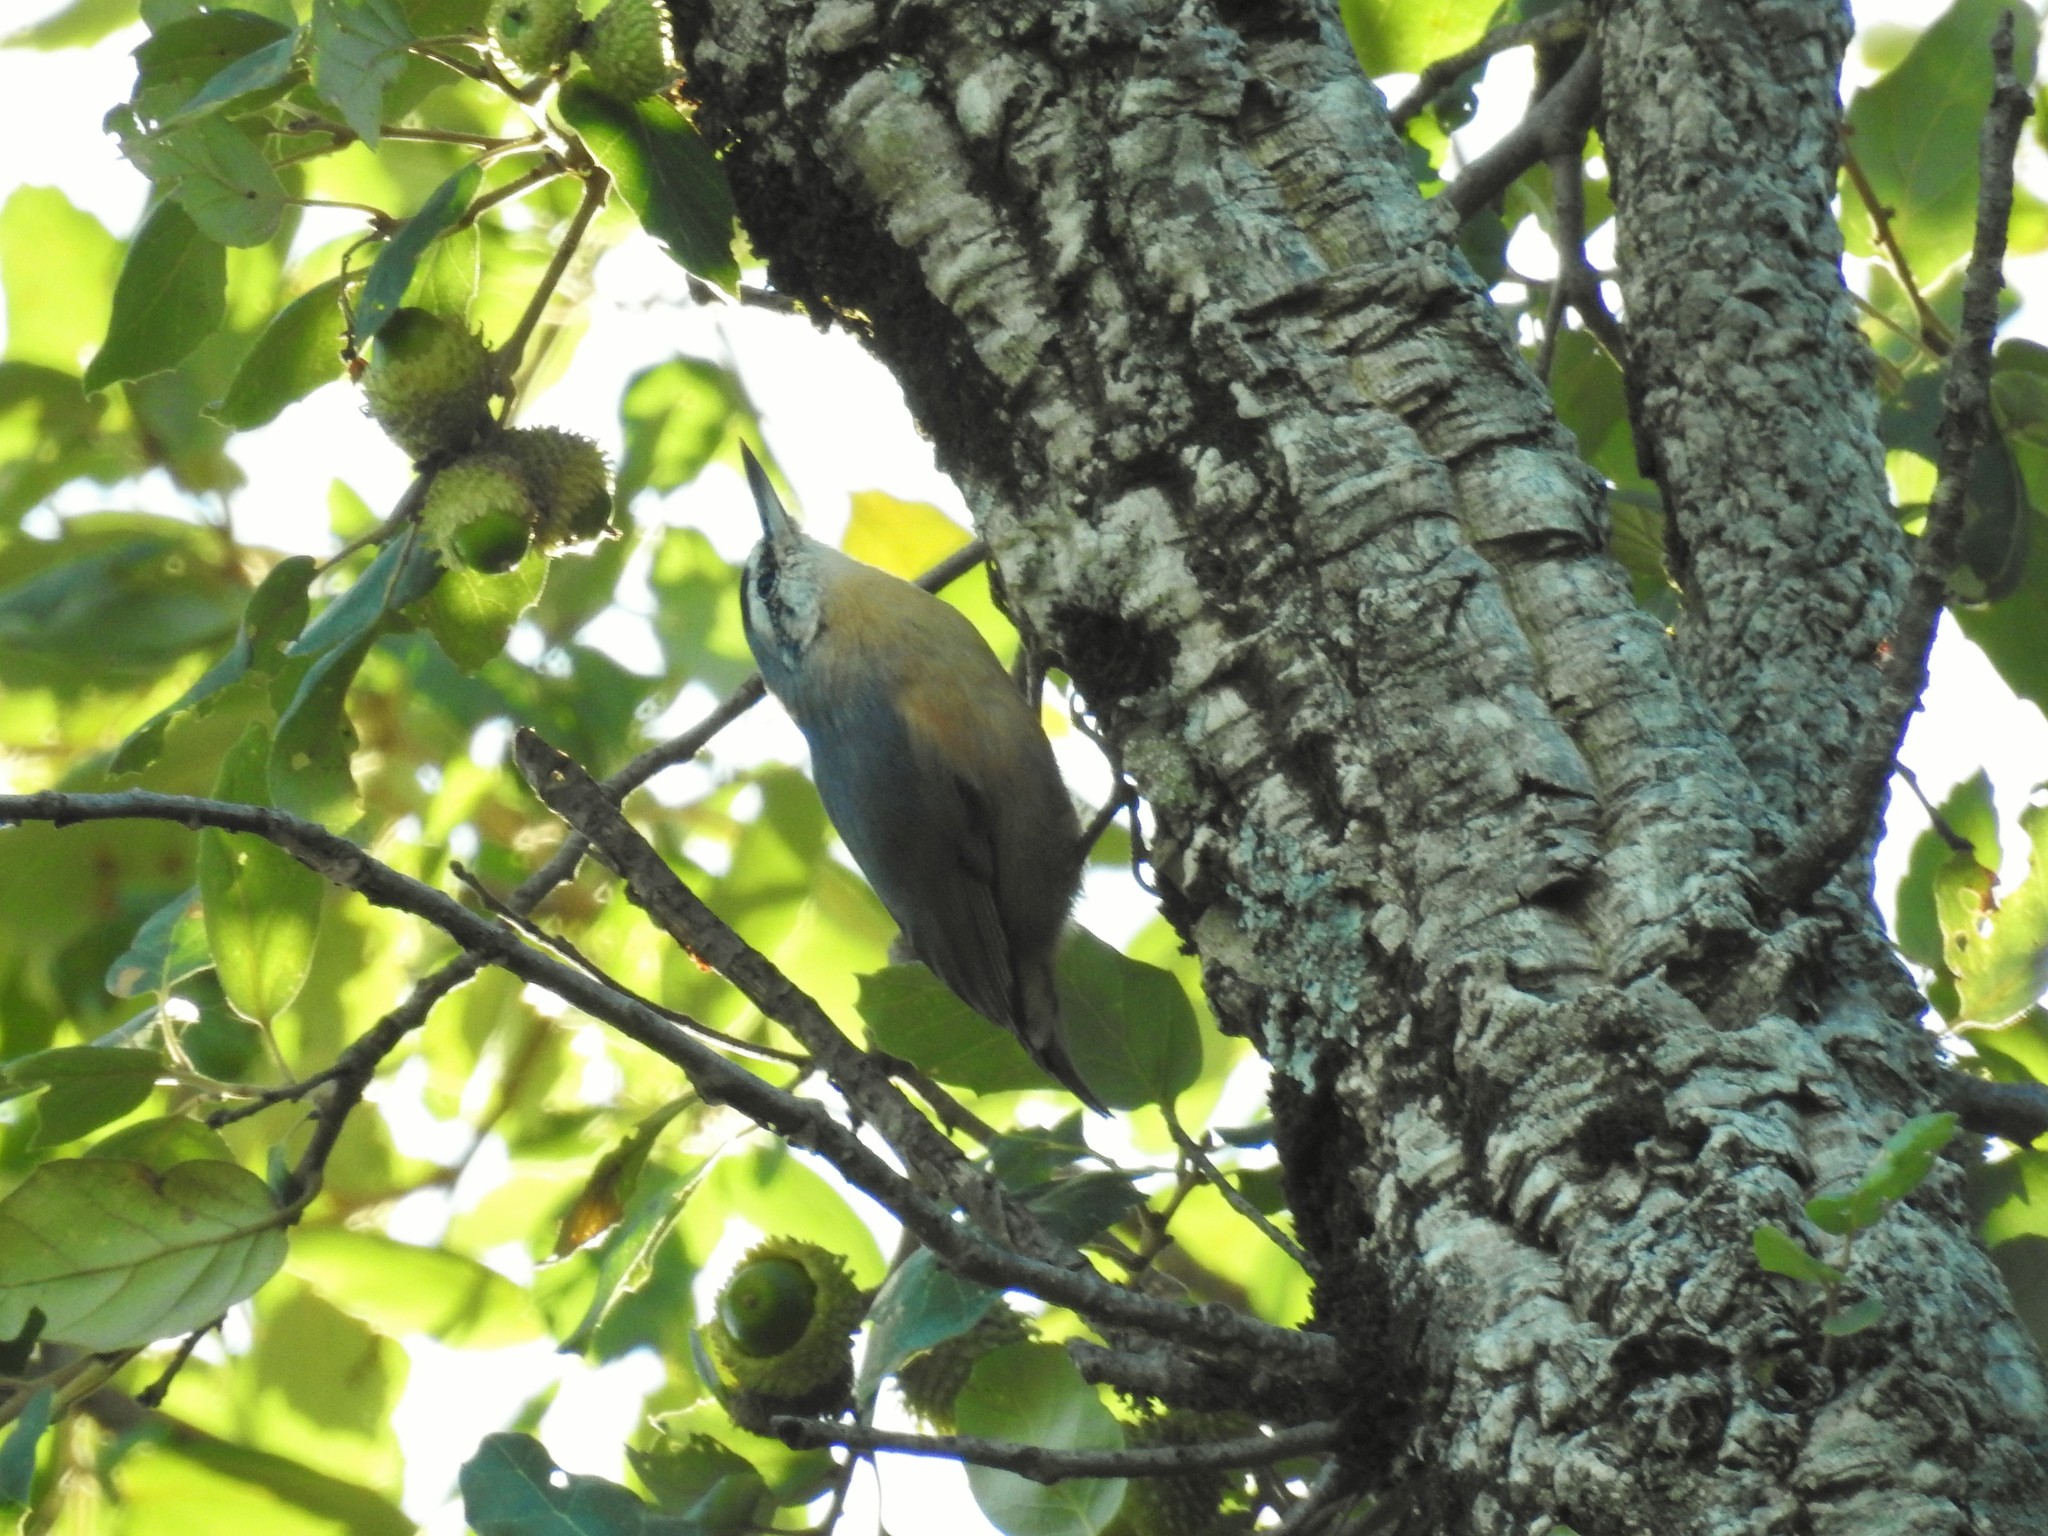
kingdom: Animalia
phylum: Chordata
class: Aves
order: Passeriformes
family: Sittidae
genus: Sitta
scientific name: Sitta ledanti
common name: Algerian nuthatch
